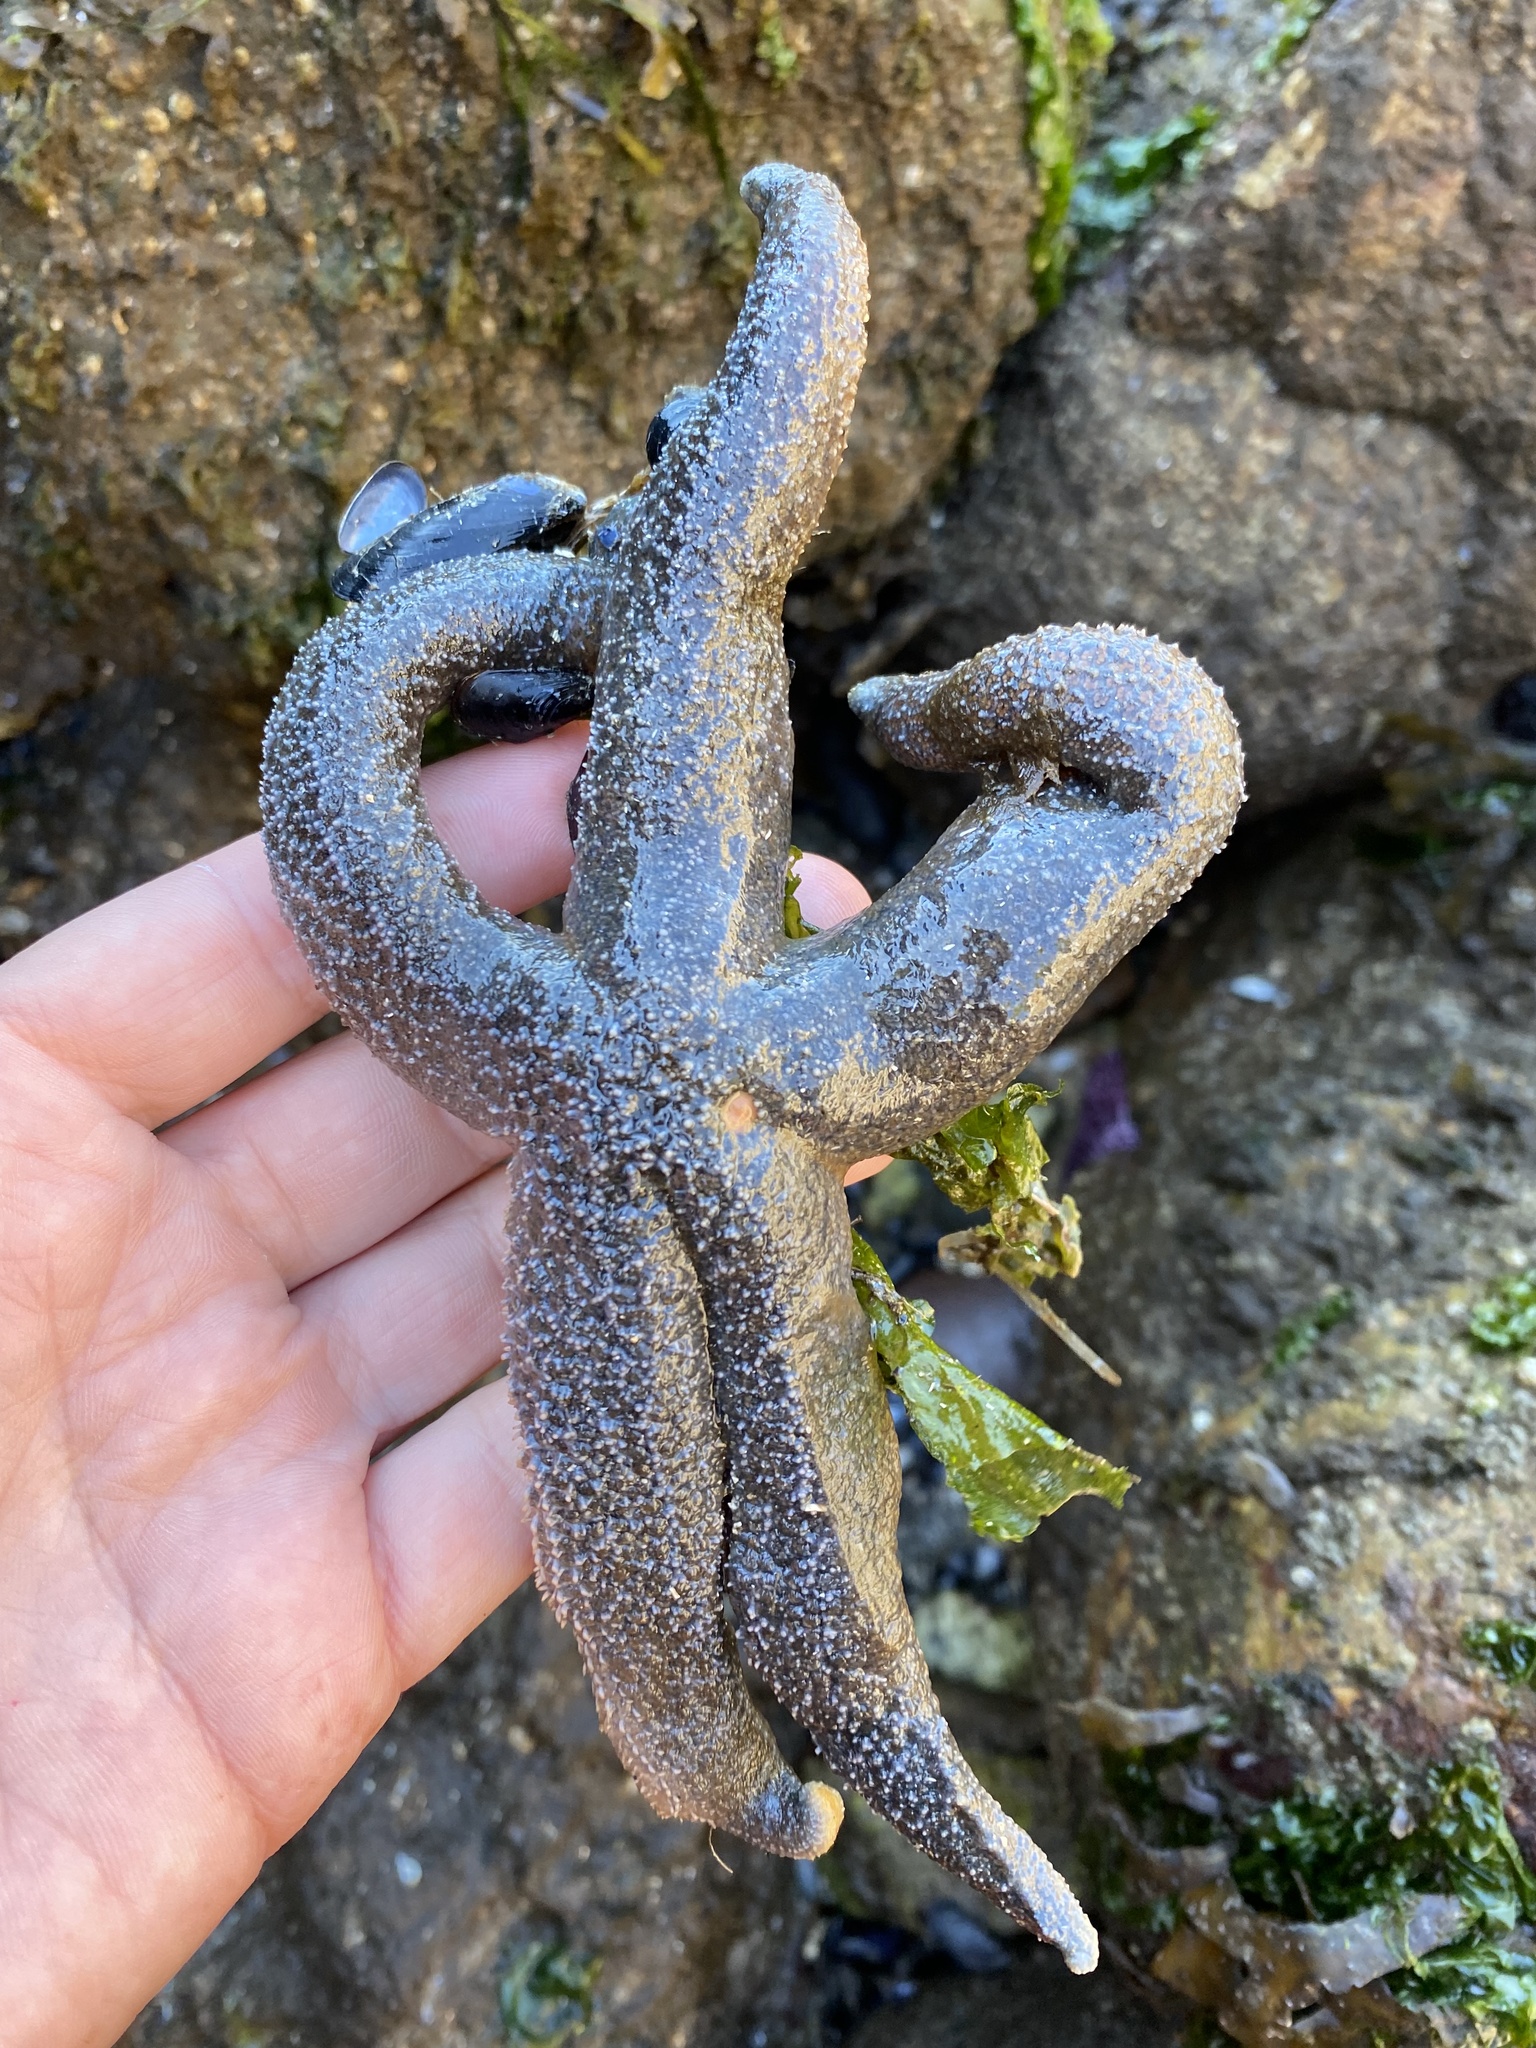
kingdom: Animalia
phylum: Echinodermata
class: Asteroidea
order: Forcipulatida
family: Asteriidae
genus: Evasterias
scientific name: Evasterias troschelii
